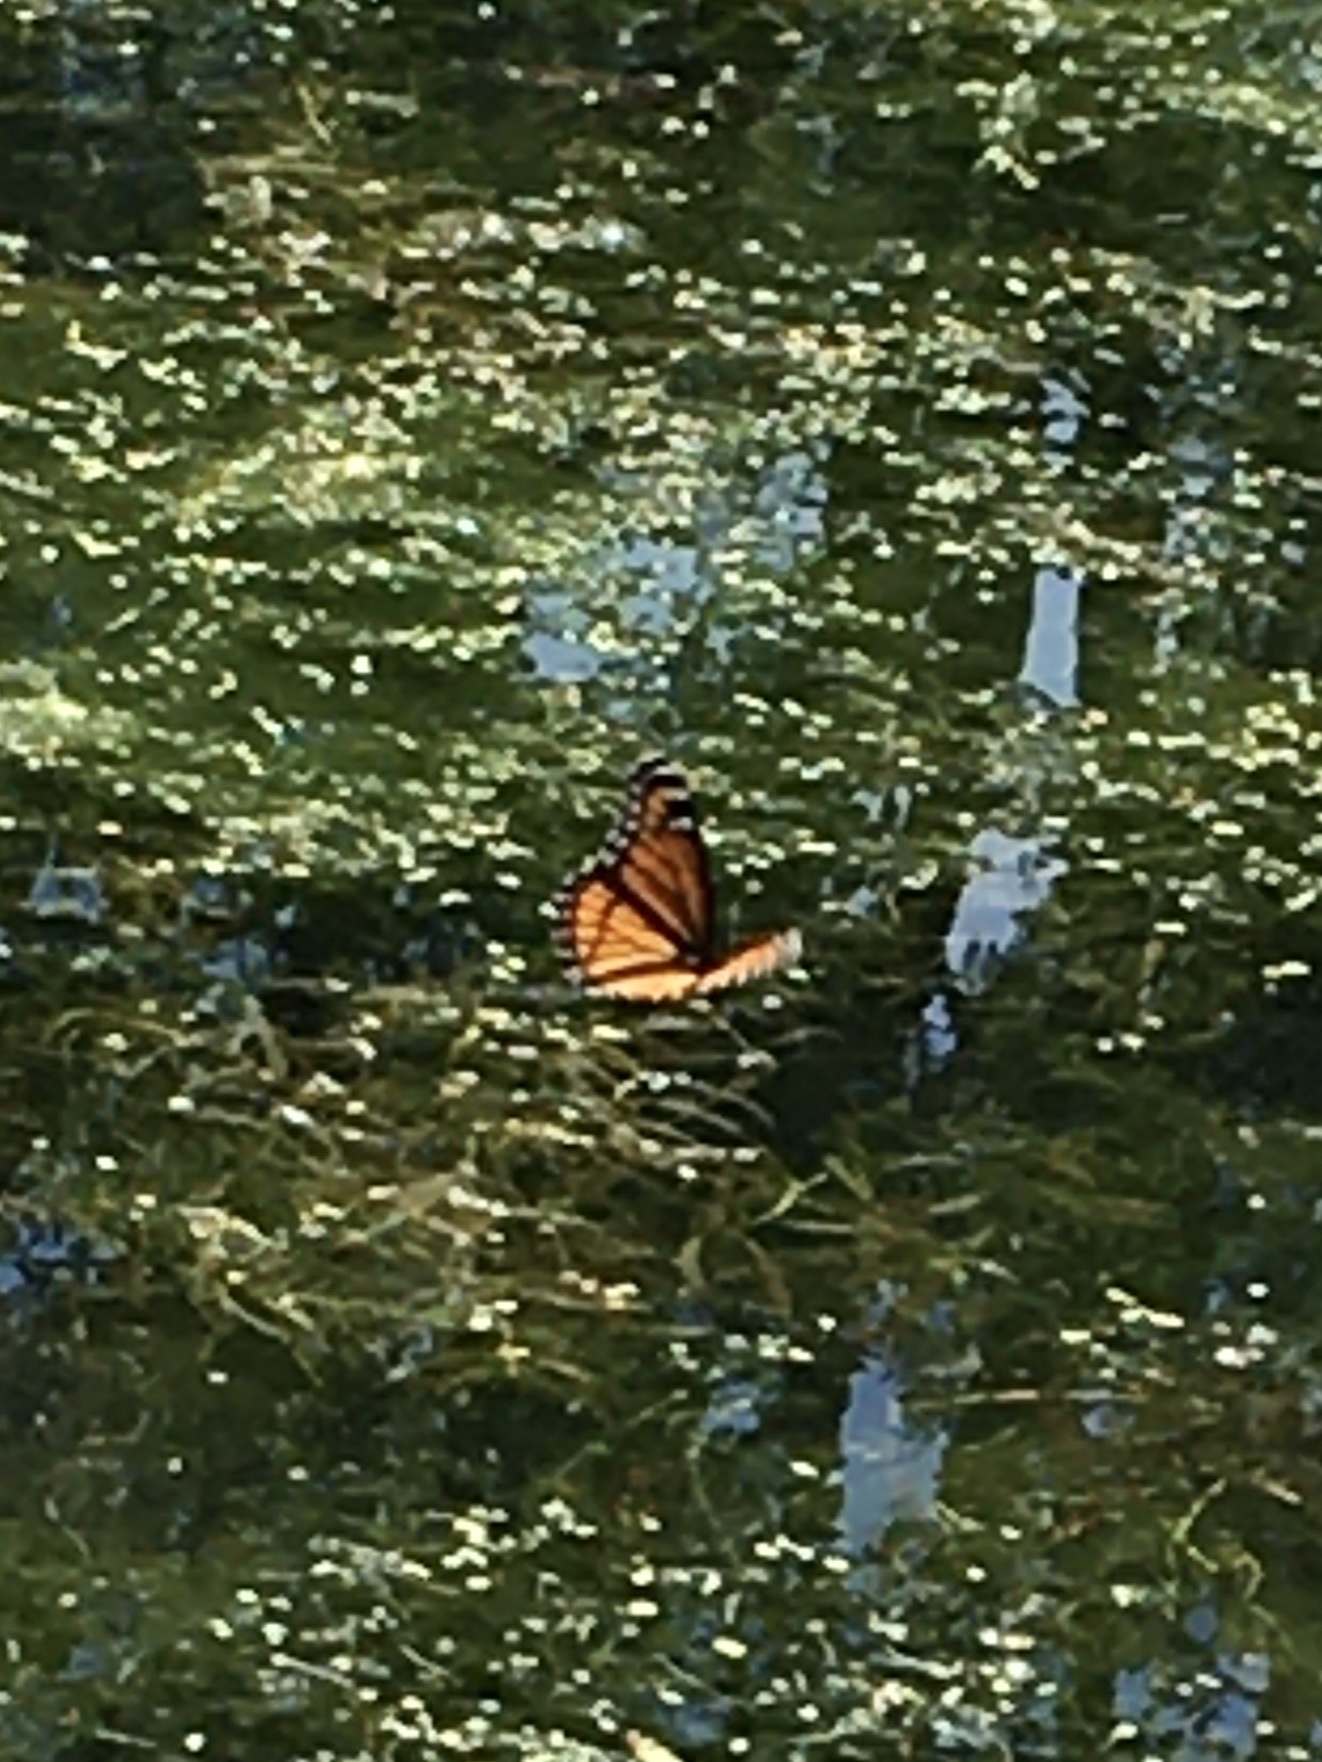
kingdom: Animalia
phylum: Arthropoda
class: Insecta
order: Lepidoptera
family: Nymphalidae
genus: Limenitis
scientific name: Limenitis archippus
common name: Viceroy
